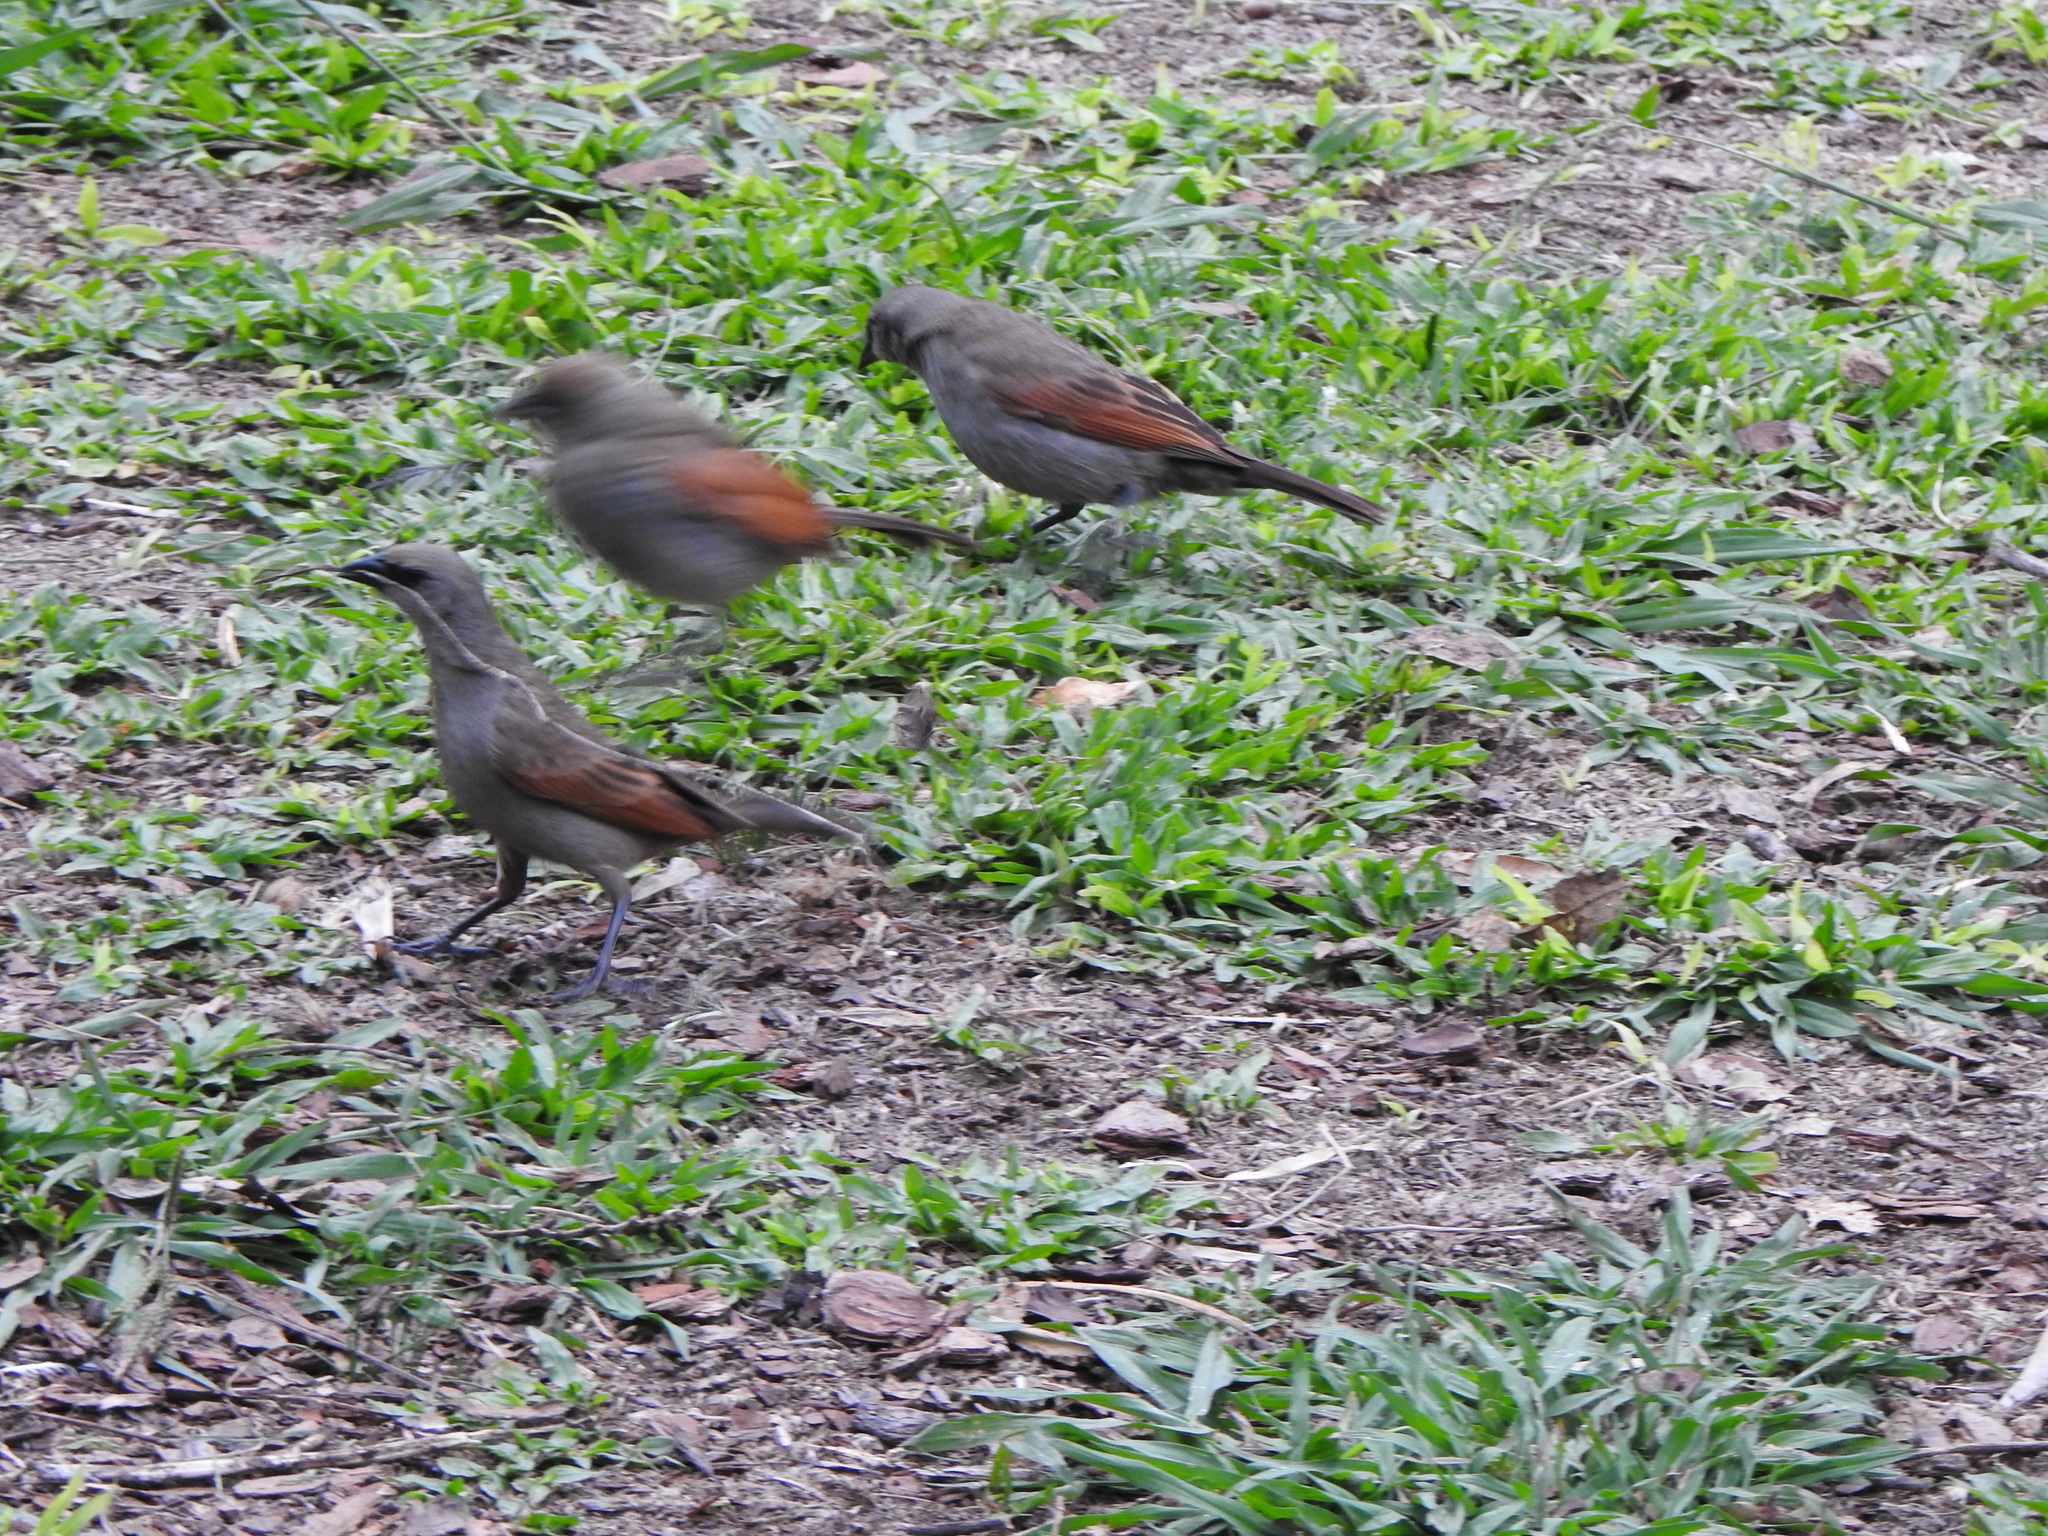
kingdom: Animalia
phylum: Chordata
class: Aves
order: Passeriformes
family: Icteridae
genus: Agelaioides
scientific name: Agelaioides badius
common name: Baywing
